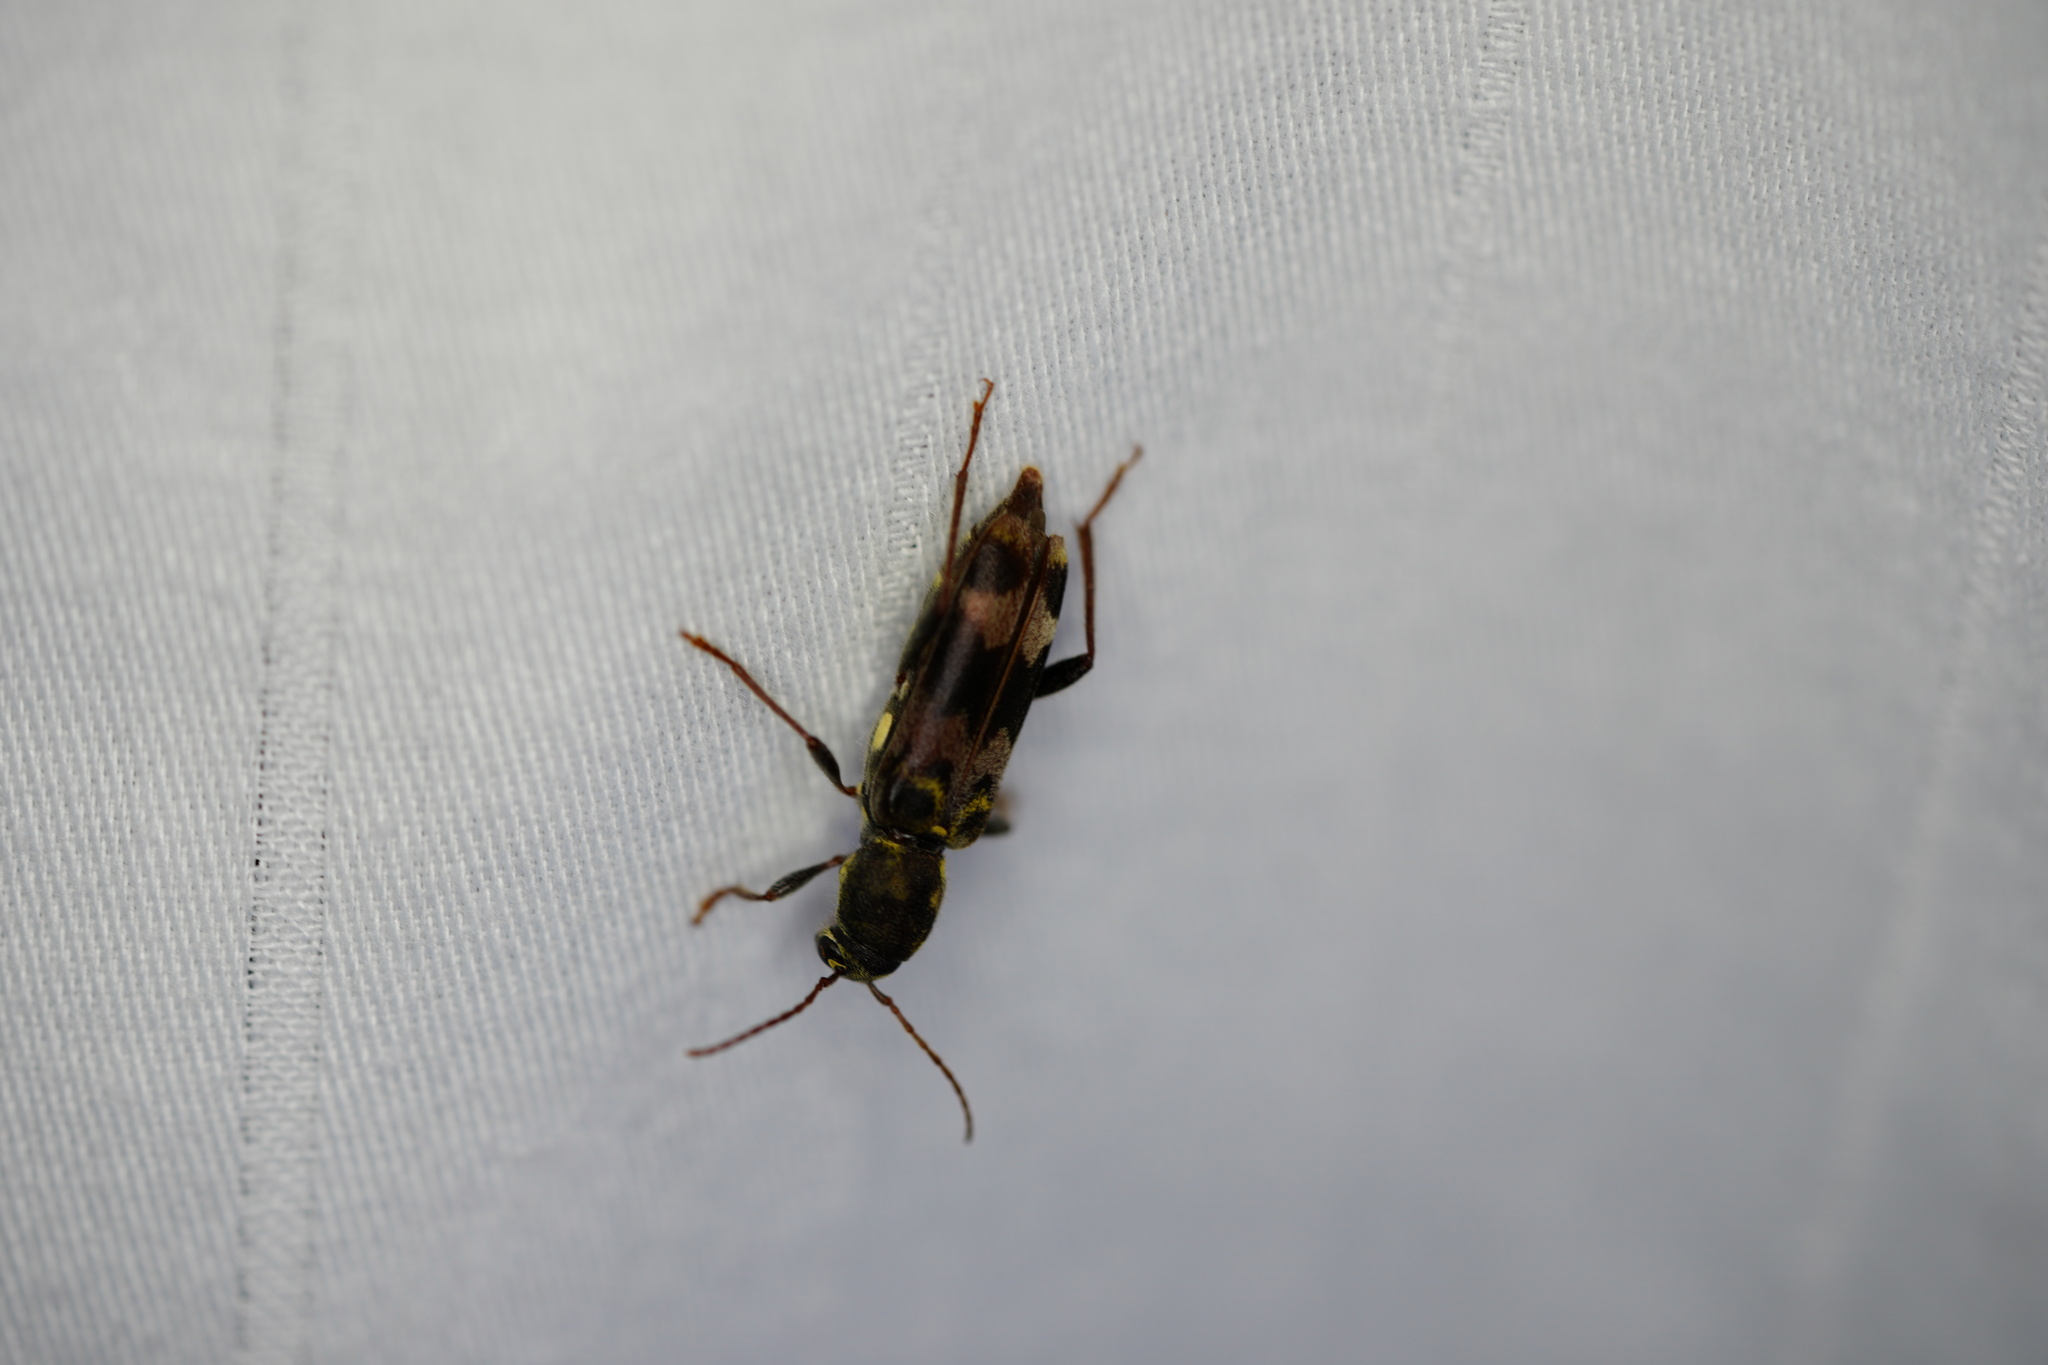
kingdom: Animalia
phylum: Arthropoda
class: Insecta
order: Coleoptera
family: Cerambycidae
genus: Xylotrechus
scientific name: Xylotrechus colonus
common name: Long-horned beetle
